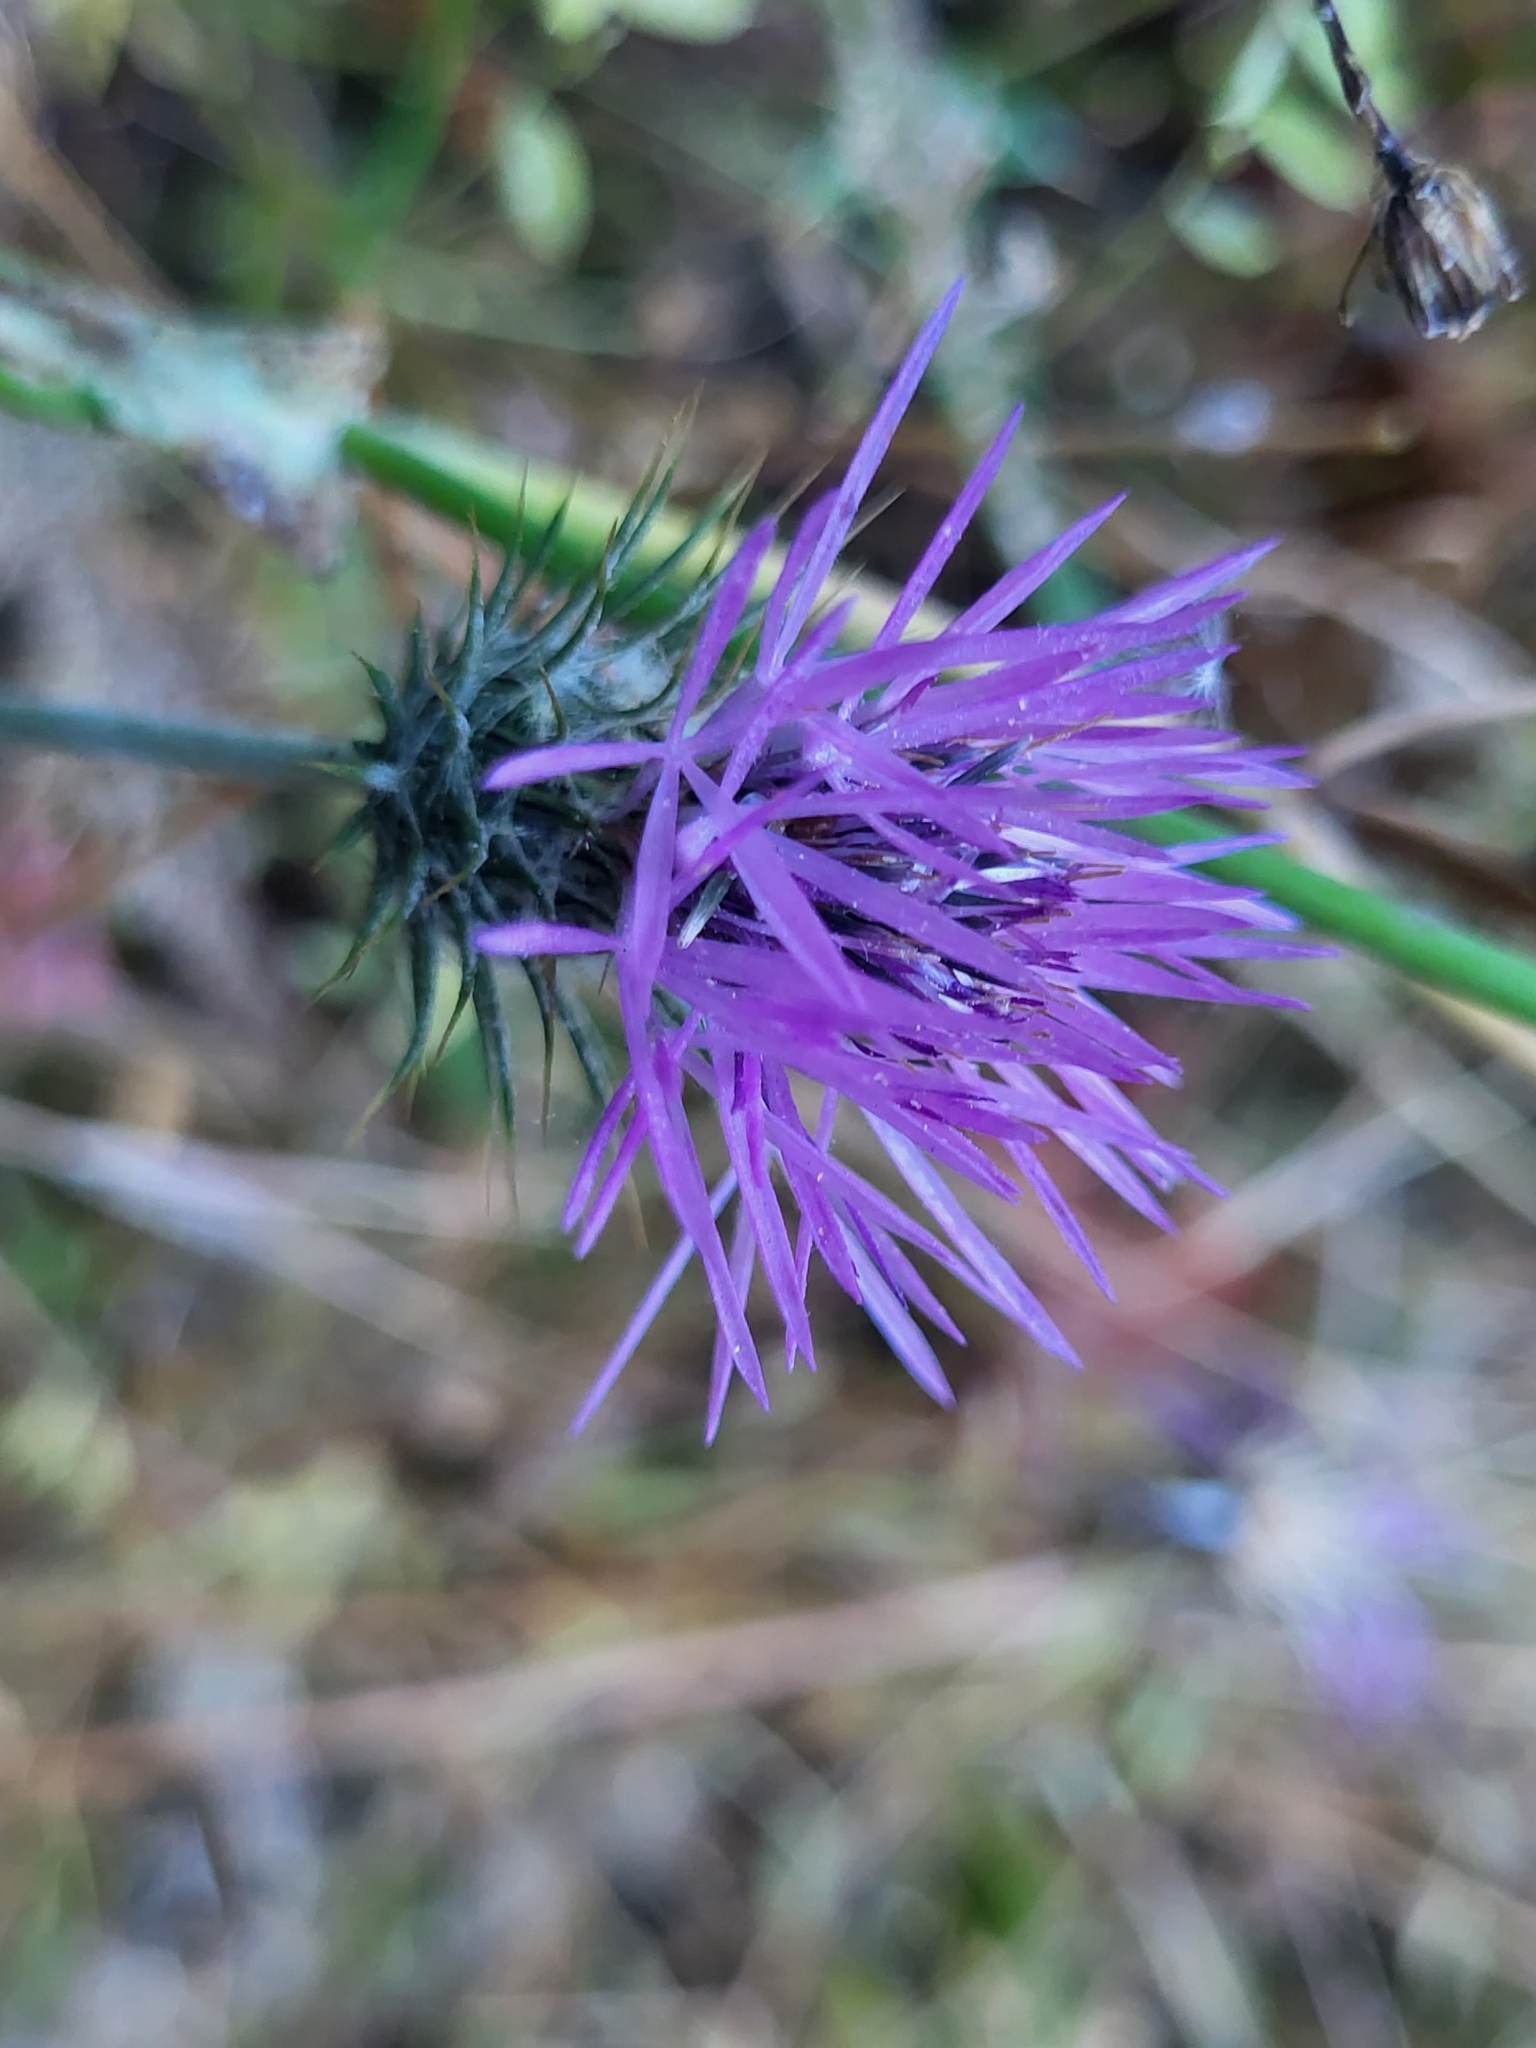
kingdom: Plantae
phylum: Tracheophyta
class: Magnoliopsida
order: Asterales
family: Asteraceae
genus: Galactites
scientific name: Galactites tomentosa
